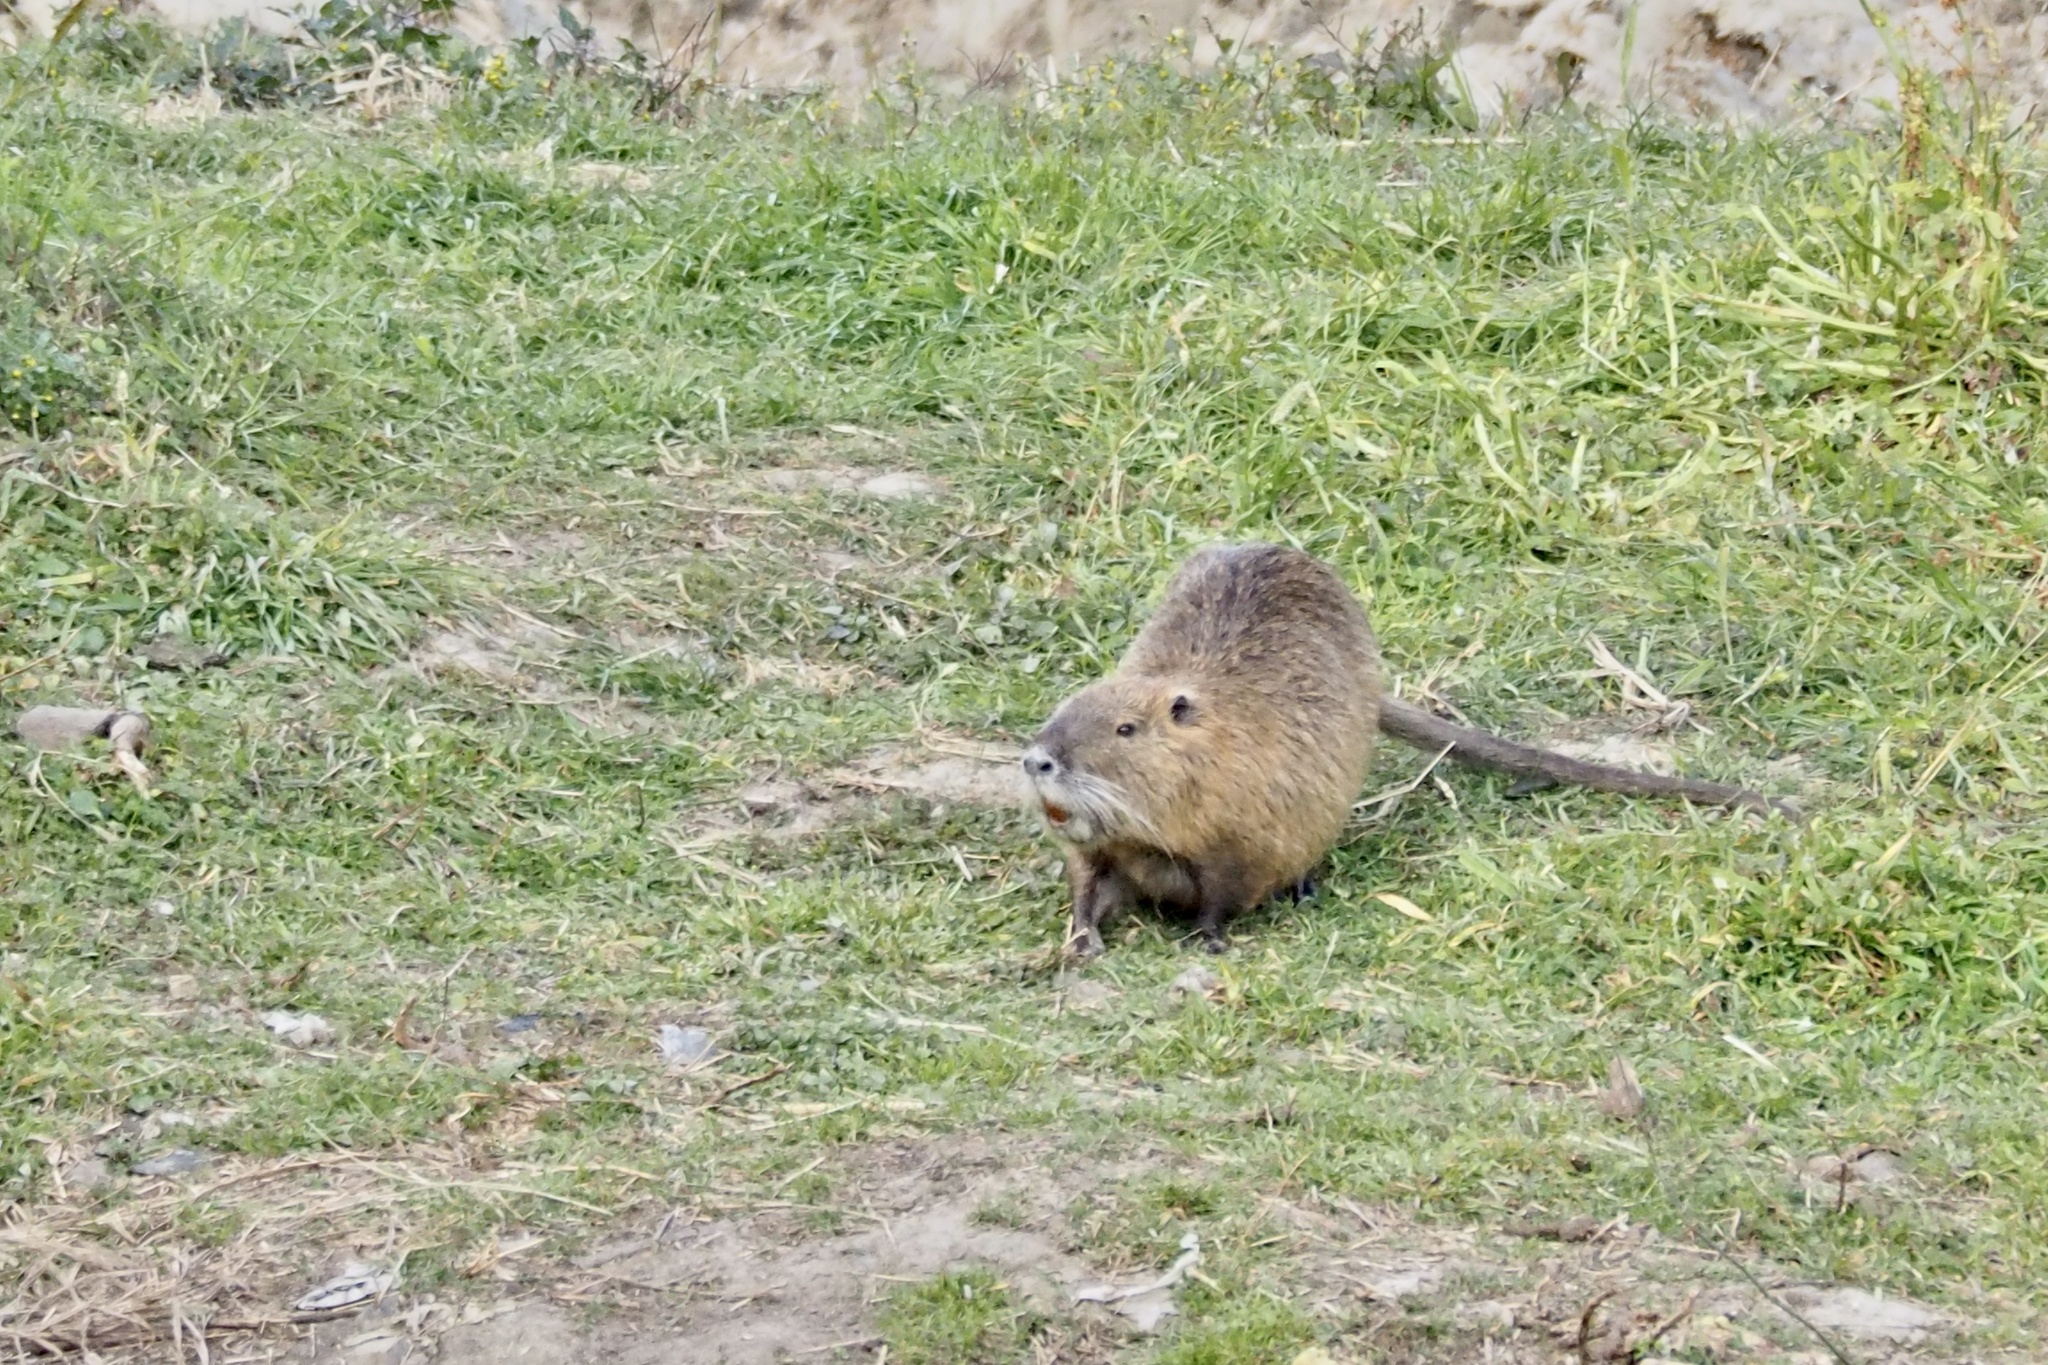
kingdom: Animalia
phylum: Chordata
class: Mammalia
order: Rodentia
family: Myocastoridae
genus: Myocastor
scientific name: Myocastor coypus
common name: Coypu
